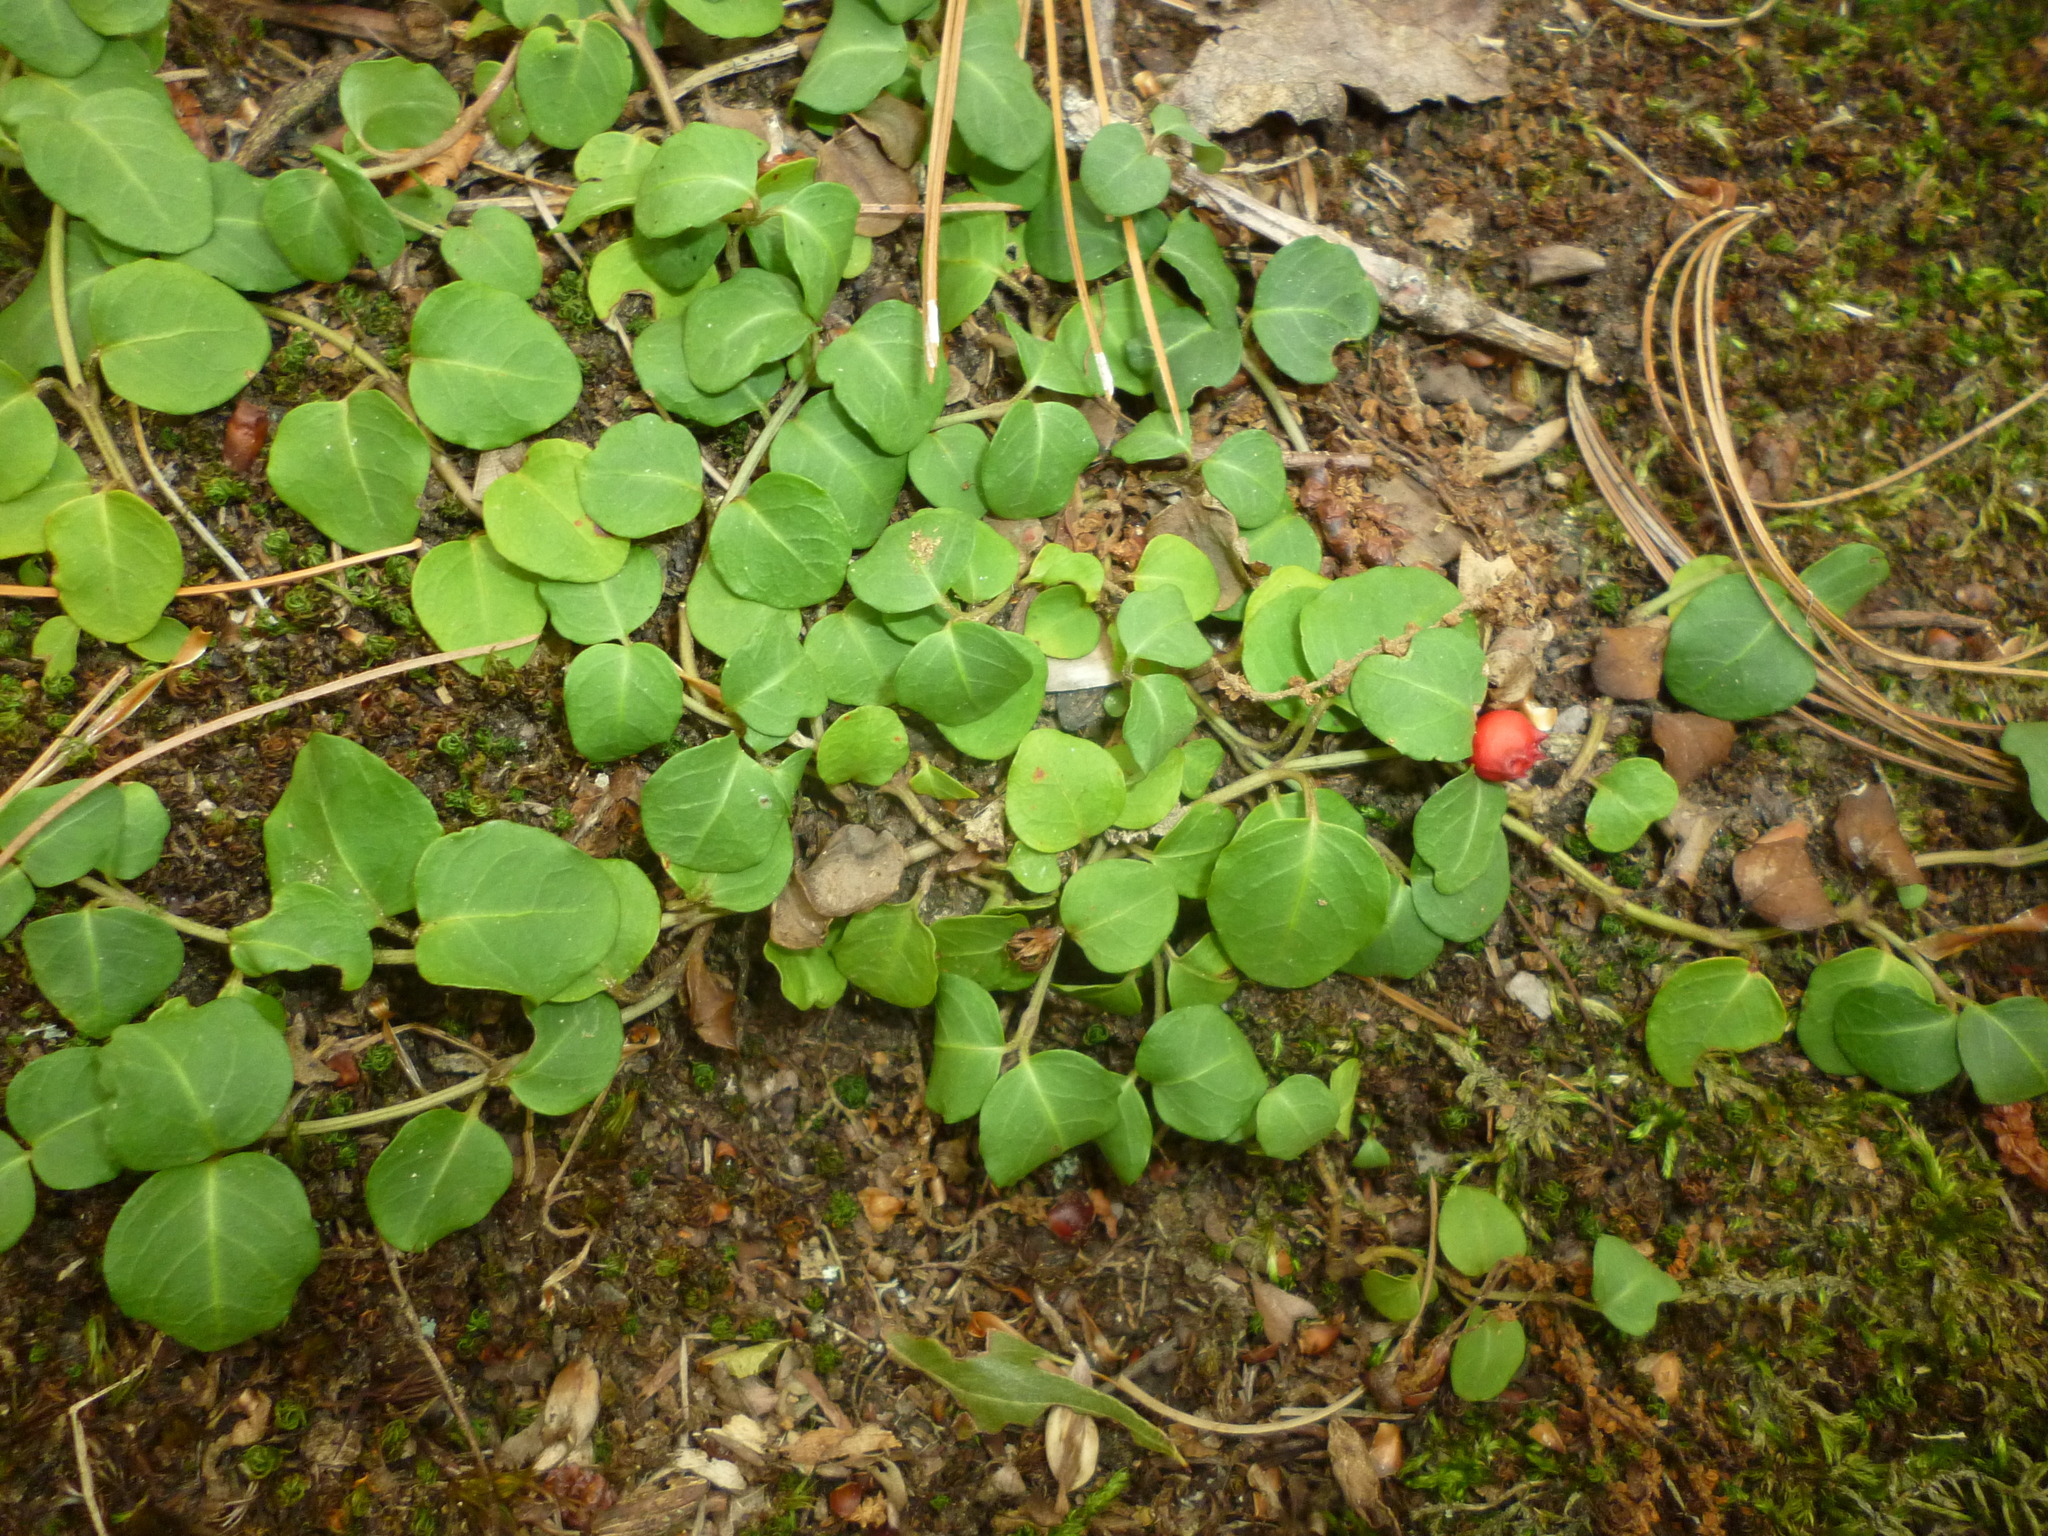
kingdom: Plantae
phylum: Tracheophyta
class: Magnoliopsida
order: Gentianales
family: Rubiaceae
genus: Mitchella
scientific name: Mitchella repens
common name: Partridge-berry
